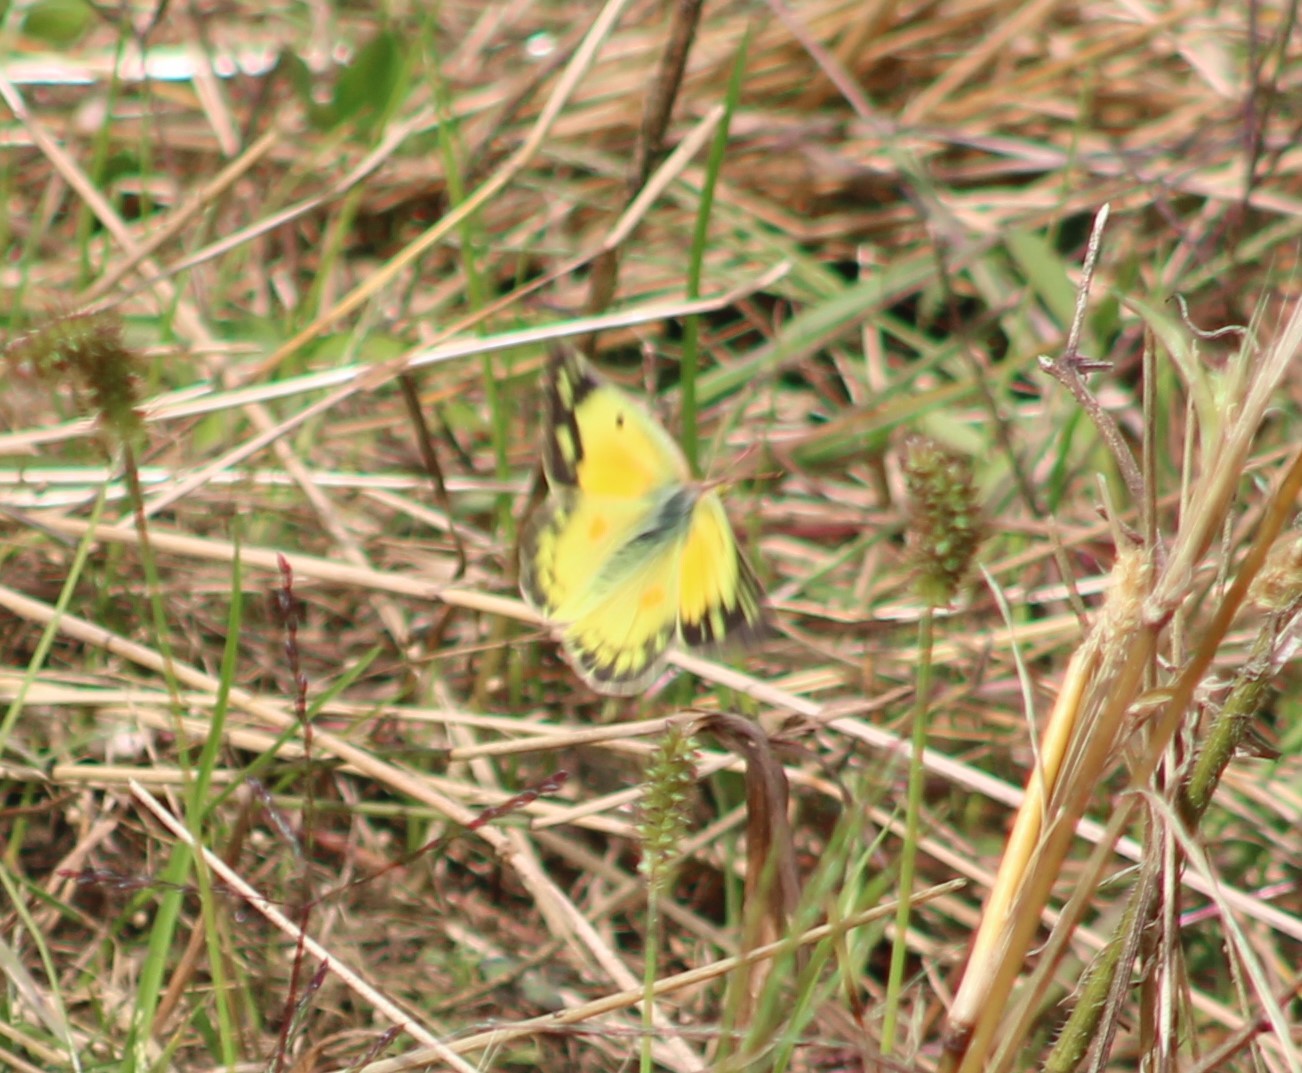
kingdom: Animalia
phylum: Arthropoda
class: Insecta
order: Lepidoptera
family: Pieridae
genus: Colias
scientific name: Colias eurytheme
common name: Alfalfa butterfly
